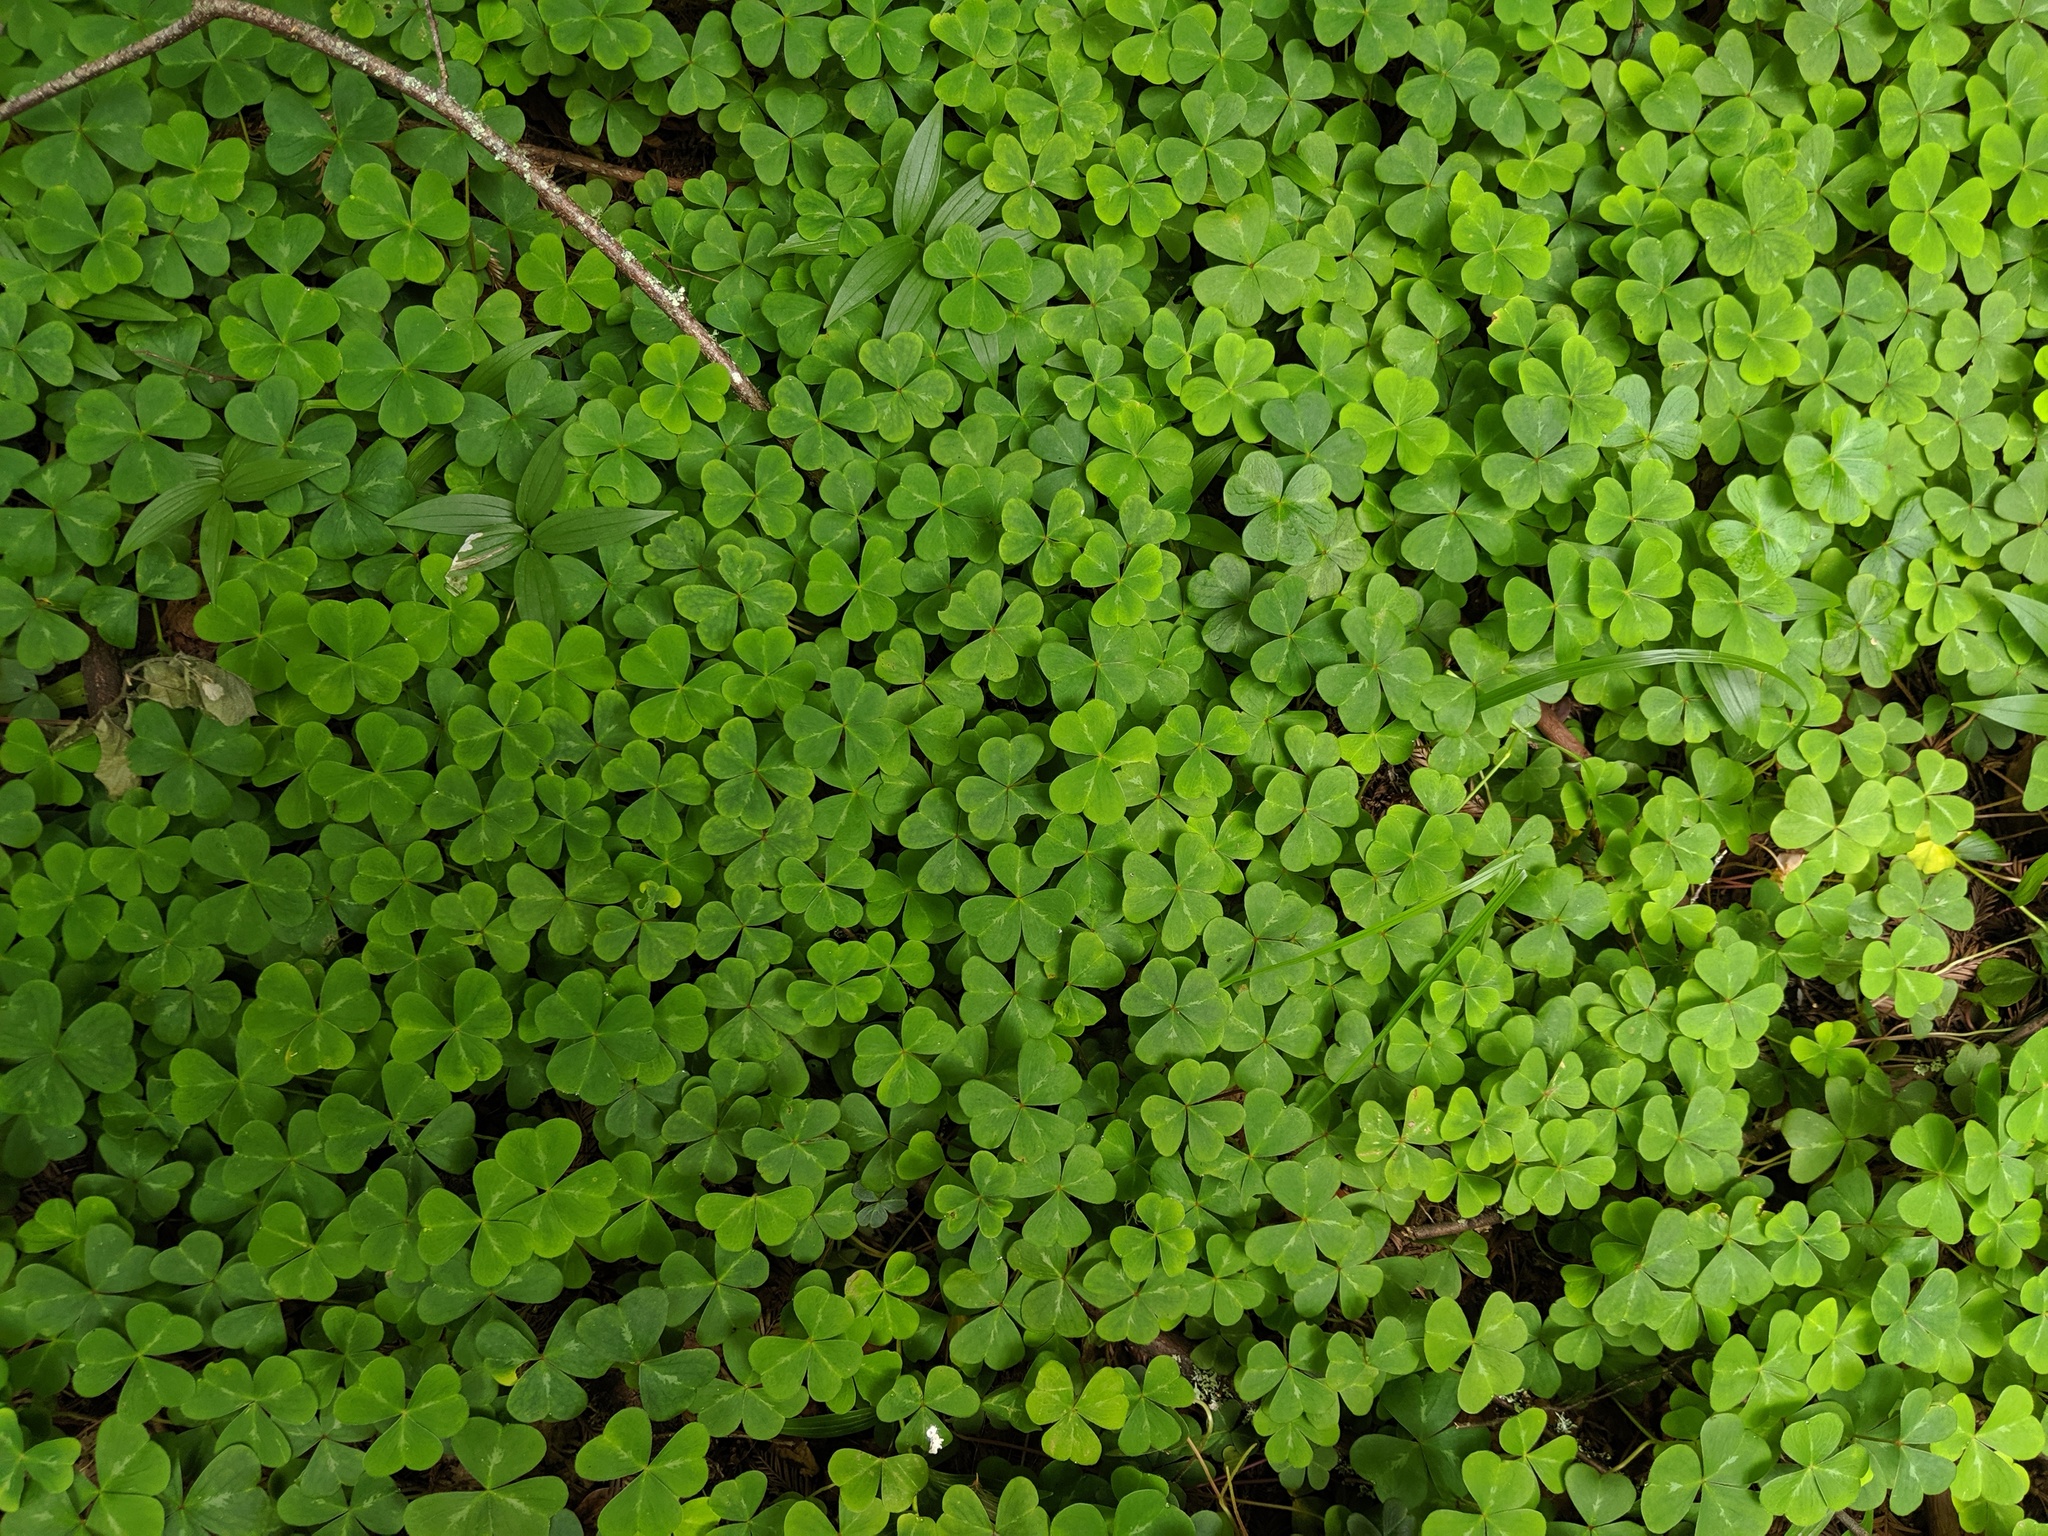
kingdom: Plantae
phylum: Tracheophyta
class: Magnoliopsida
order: Oxalidales
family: Oxalidaceae
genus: Oxalis
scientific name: Oxalis oregana
